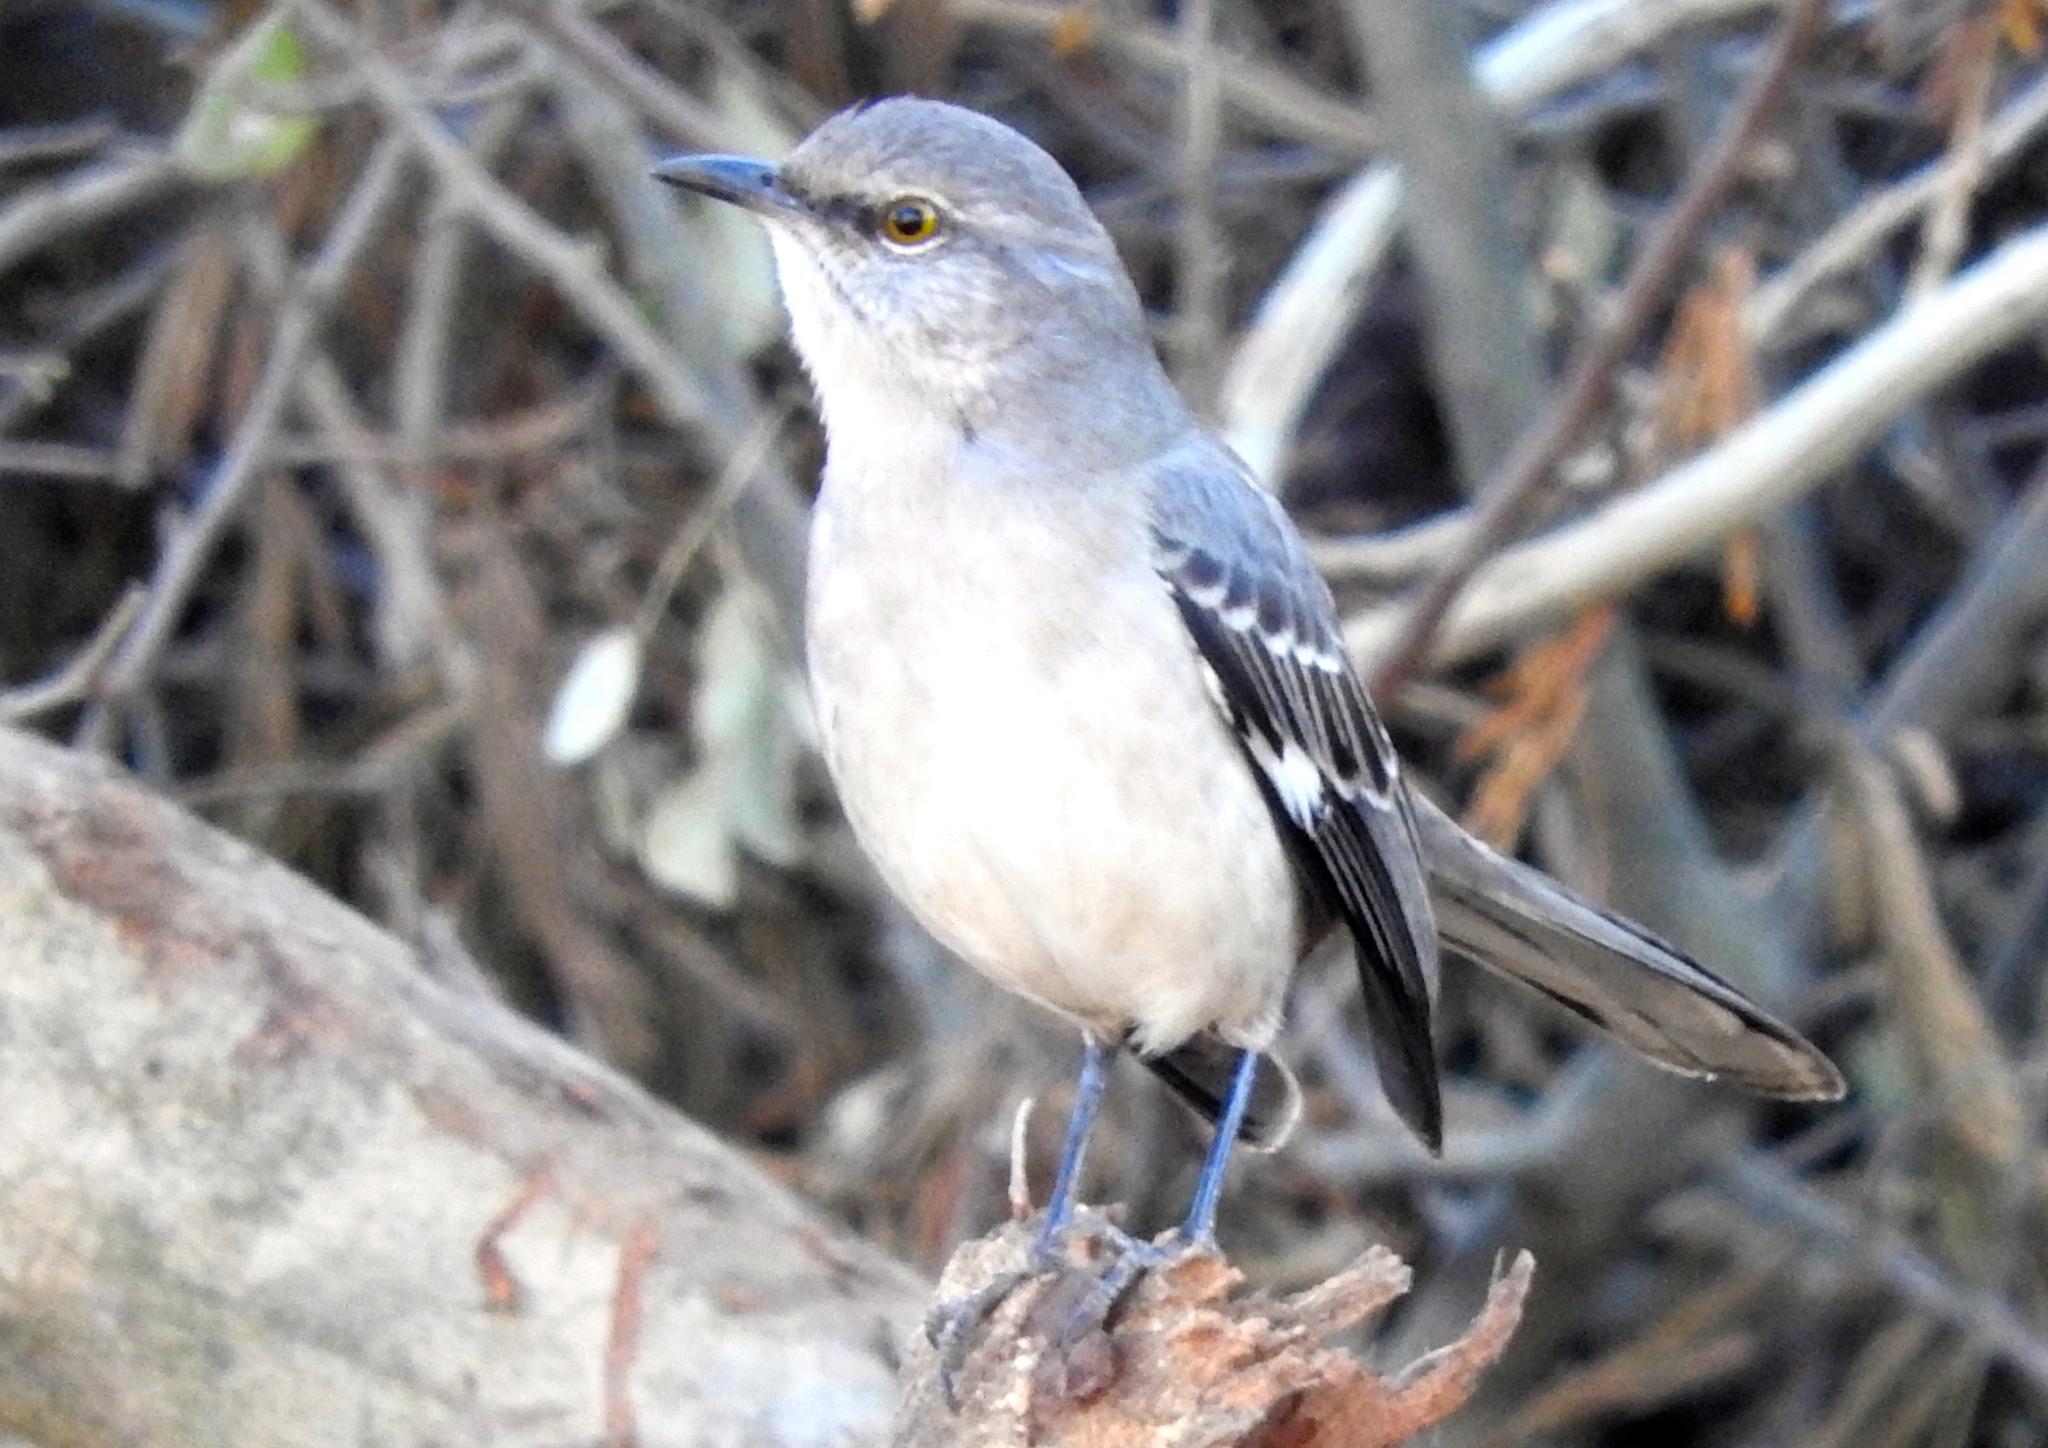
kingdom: Animalia
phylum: Chordata
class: Aves
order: Passeriformes
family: Mimidae
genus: Mimus
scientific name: Mimus polyglottos
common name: Northern mockingbird
